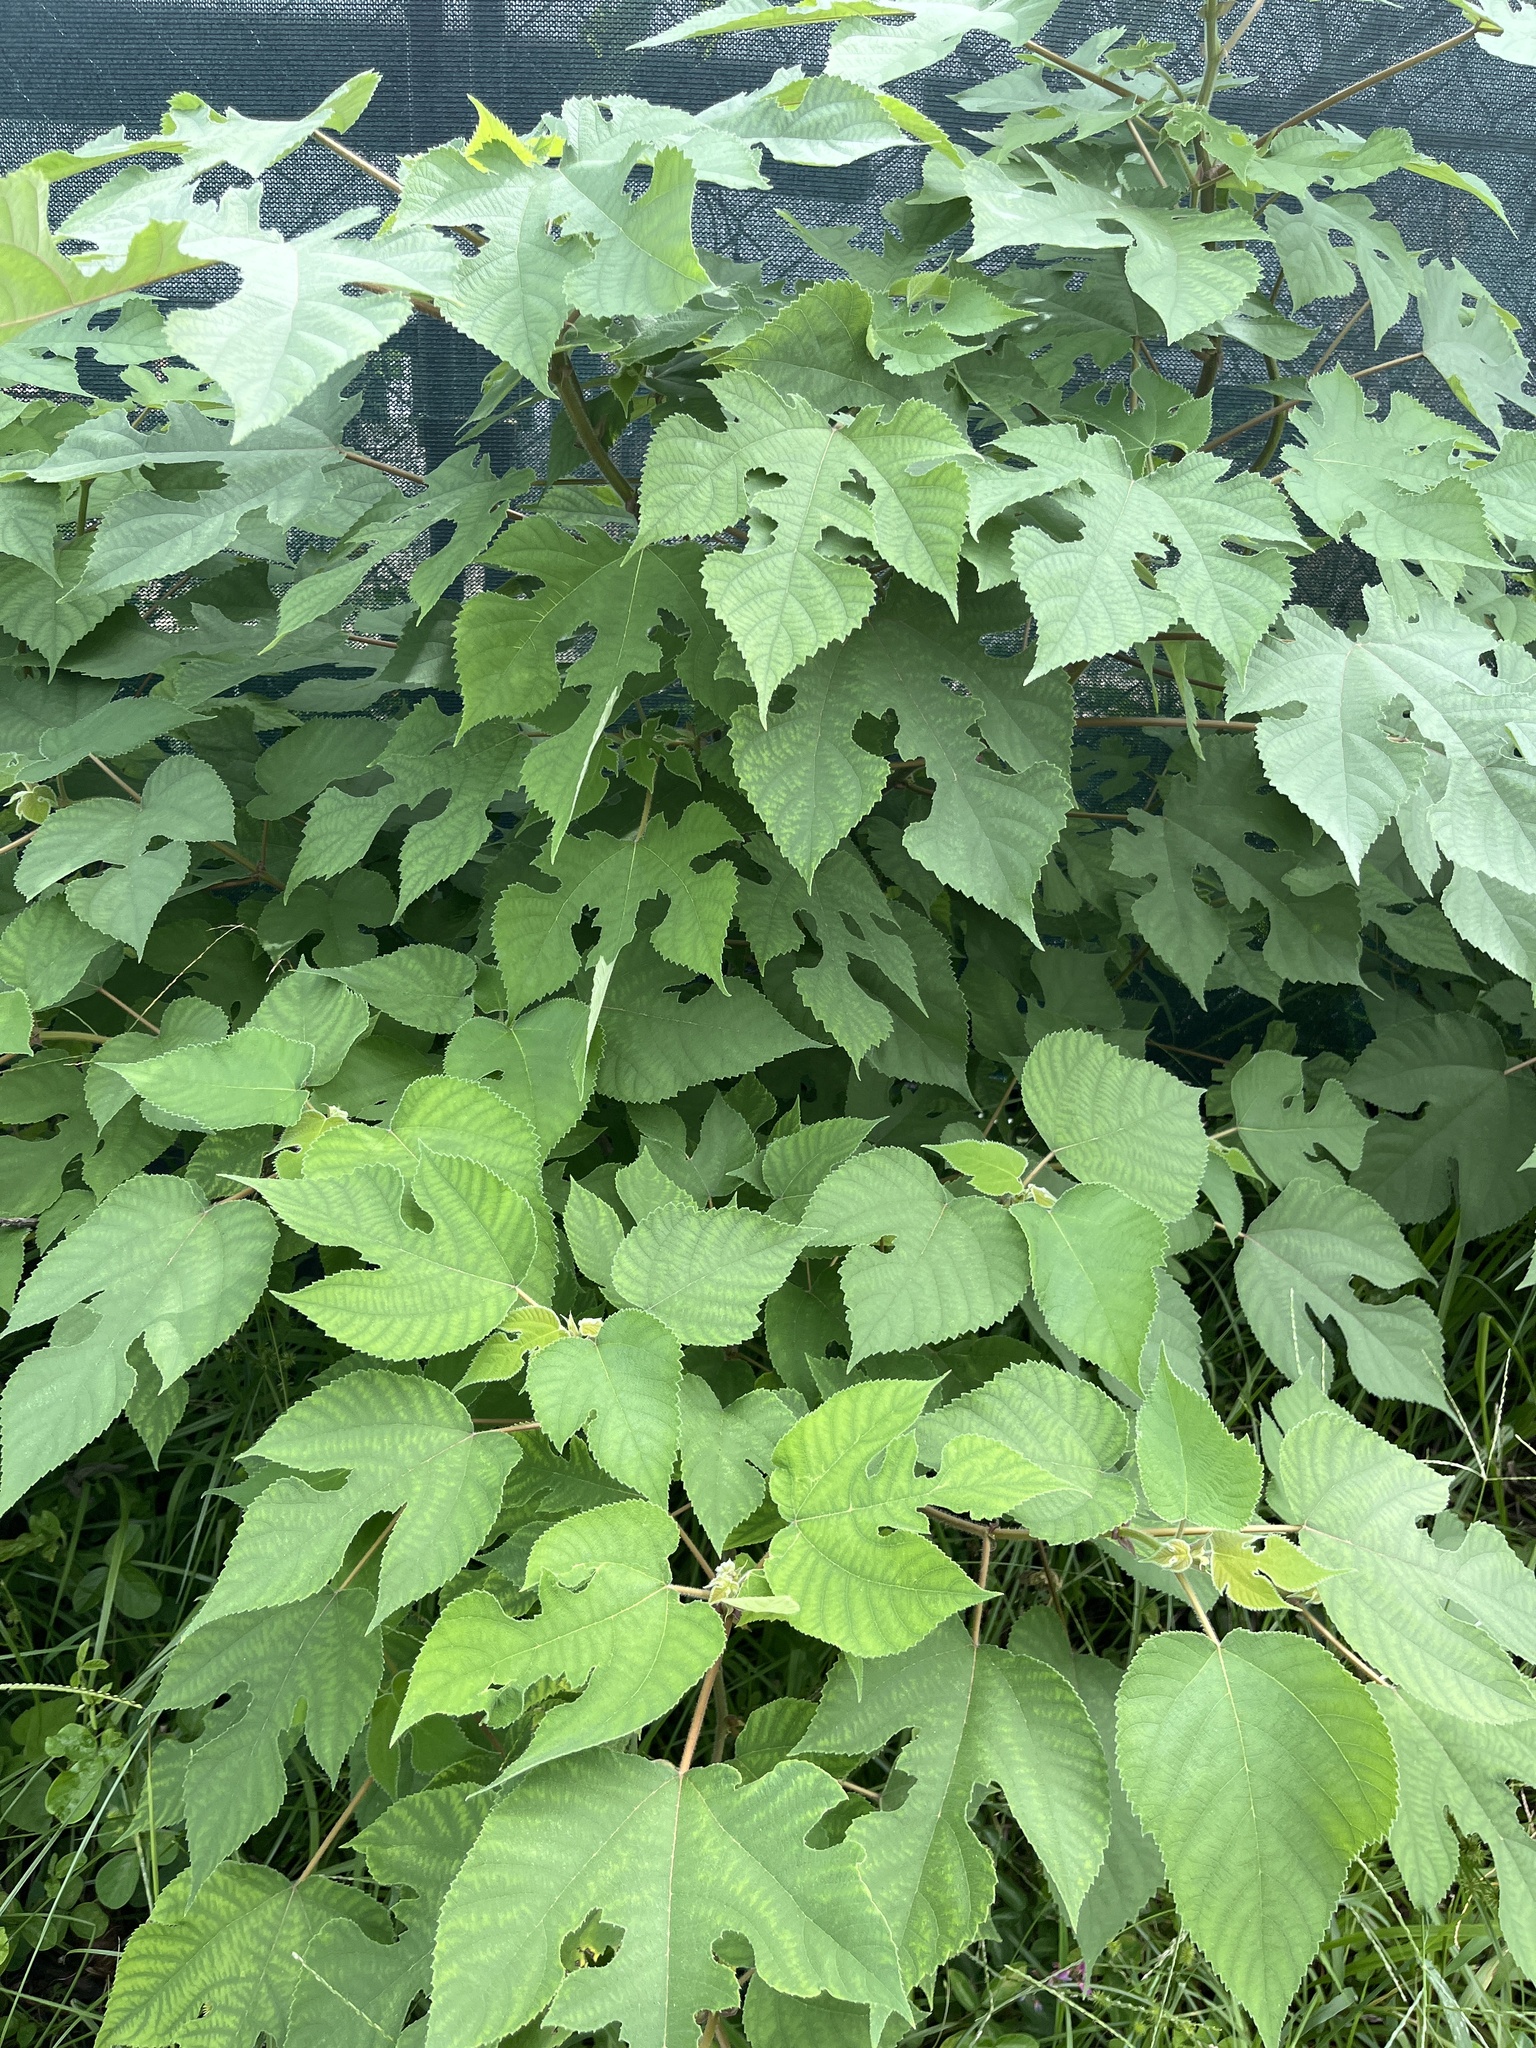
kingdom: Plantae
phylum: Tracheophyta
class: Magnoliopsida
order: Rosales
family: Moraceae
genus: Broussonetia
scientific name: Broussonetia papyrifera
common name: Paper mulberry
